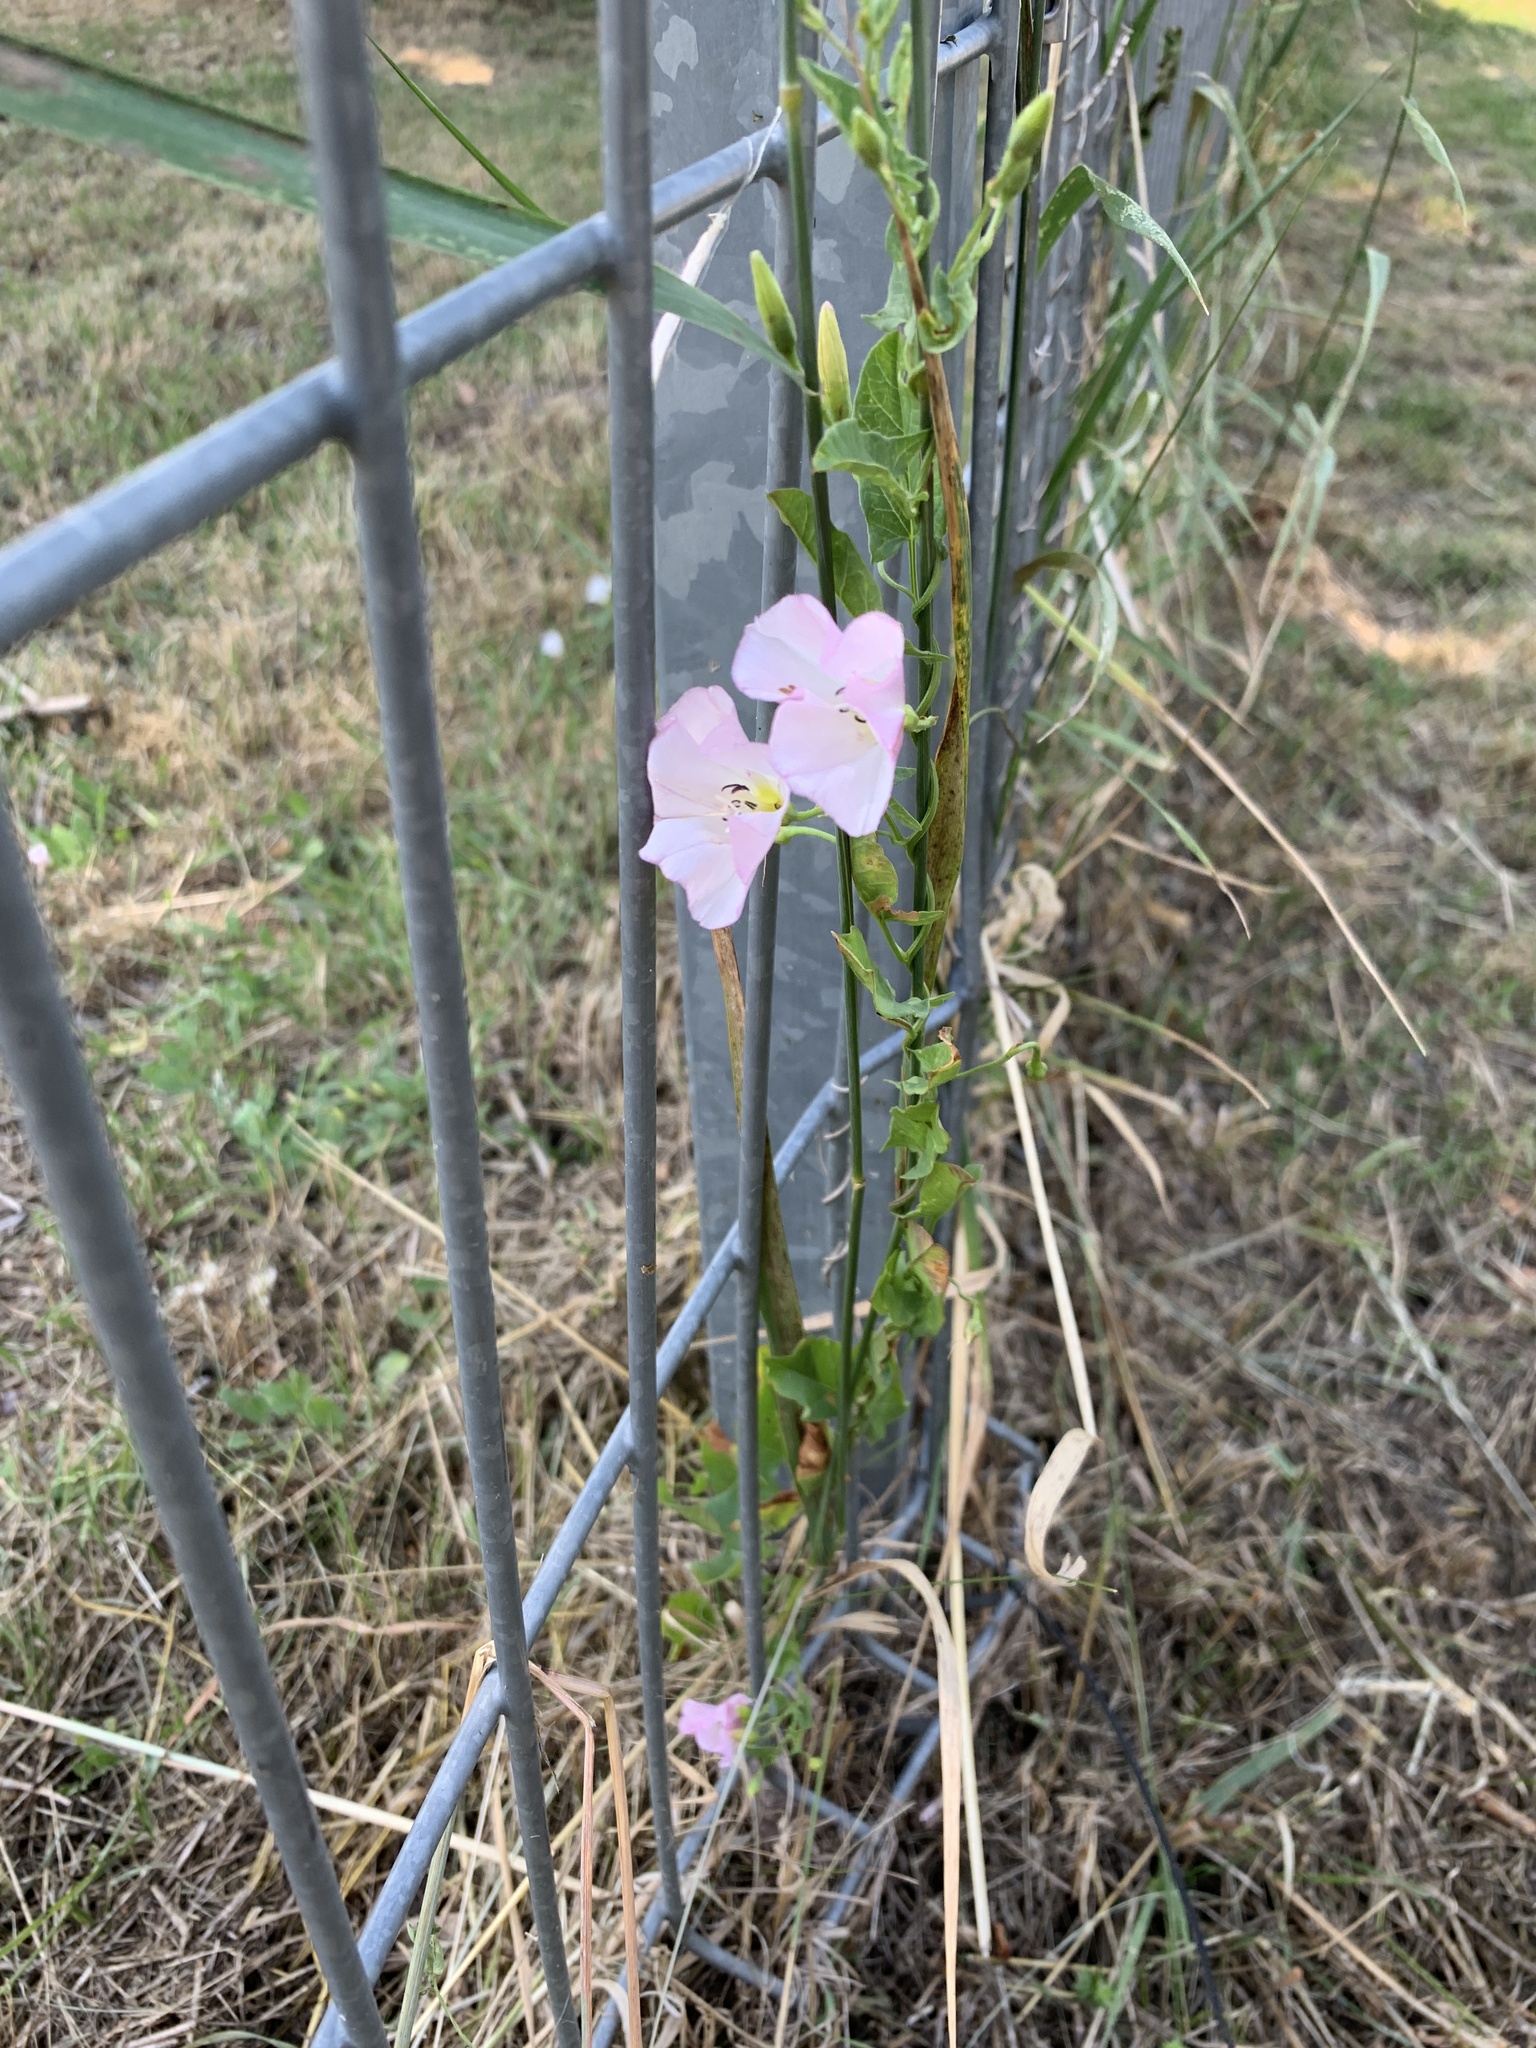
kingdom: Plantae
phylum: Tracheophyta
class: Magnoliopsida
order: Solanales
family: Convolvulaceae
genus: Convolvulus
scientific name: Convolvulus arvensis
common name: Field bindweed
